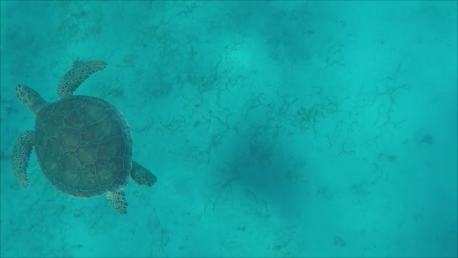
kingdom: Animalia
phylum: Chordata
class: Testudines
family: Cheloniidae
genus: Chelonia
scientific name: Chelonia mydas
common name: Green turtle
